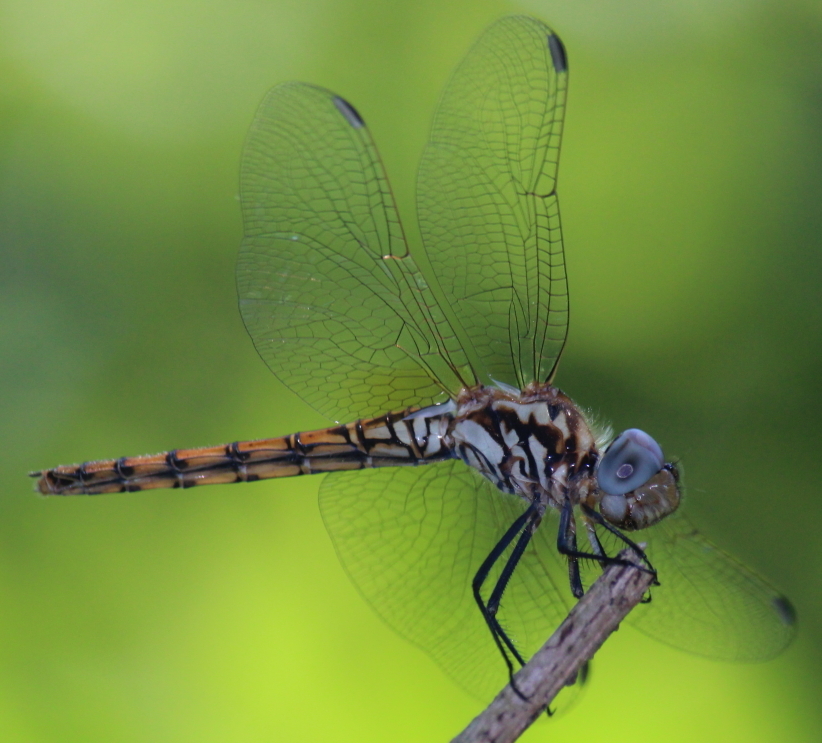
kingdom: Animalia
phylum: Arthropoda
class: Insecta
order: Odonata
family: Libellulidae
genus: Trithemis
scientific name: Trithemis annulata
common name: Violet dropwing
